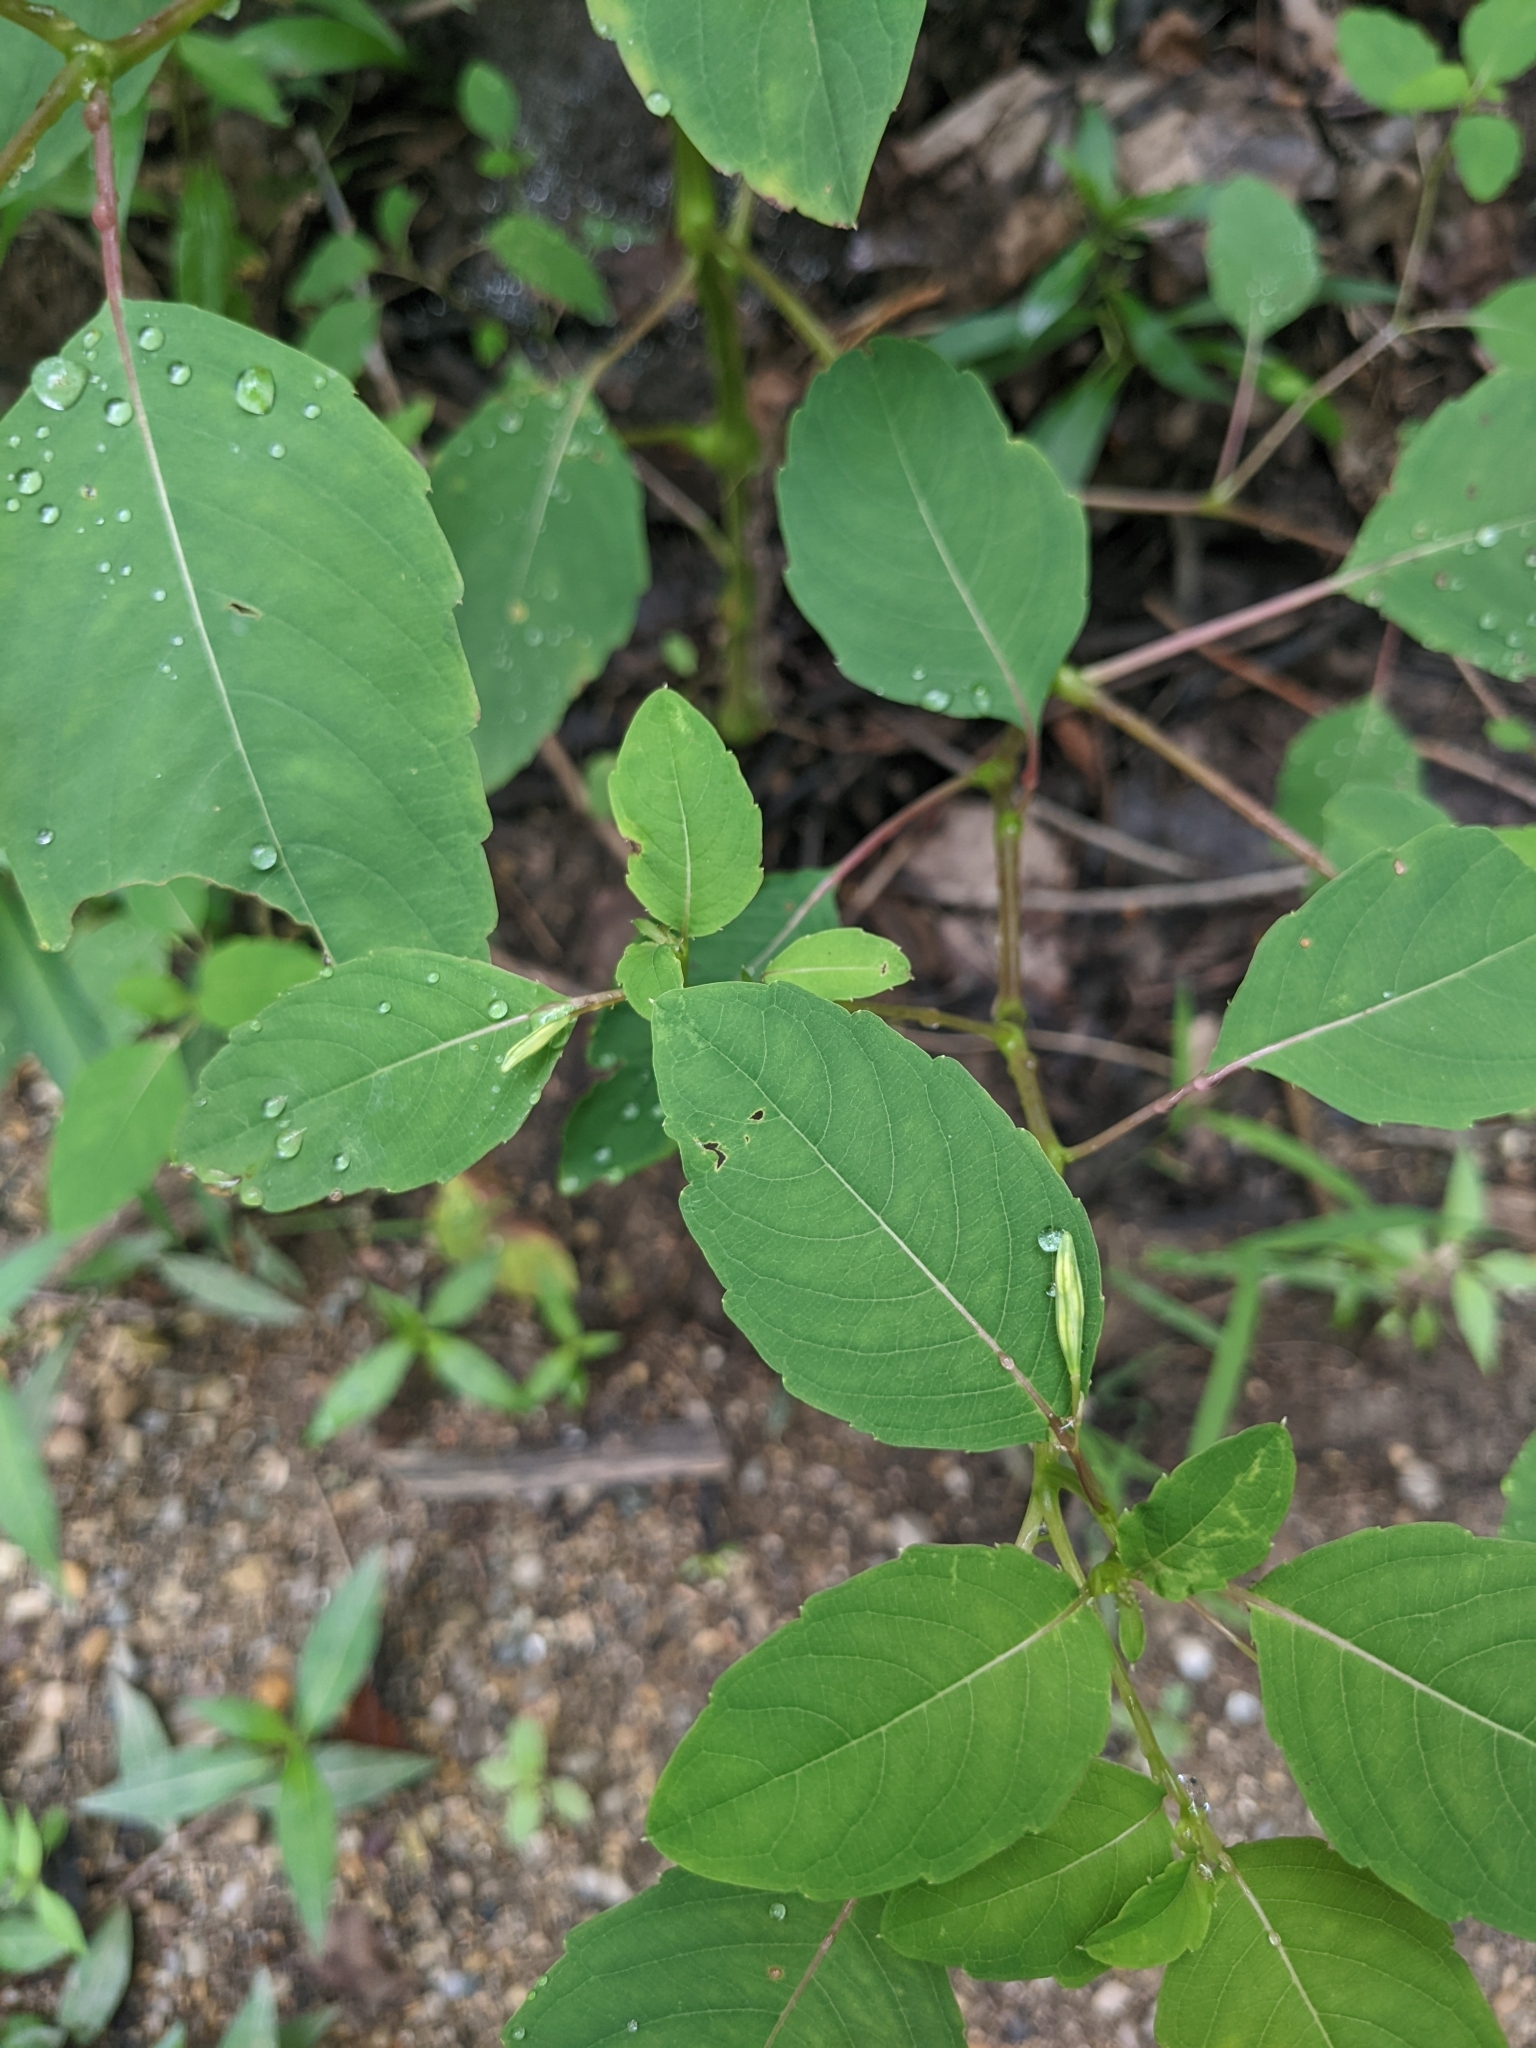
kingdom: Plantae
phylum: Tracheophyta
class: Magnoliopsida
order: Ericales
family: Balsaminaceae
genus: Impatiens
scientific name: Impatiens capensis
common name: Orange balsam
